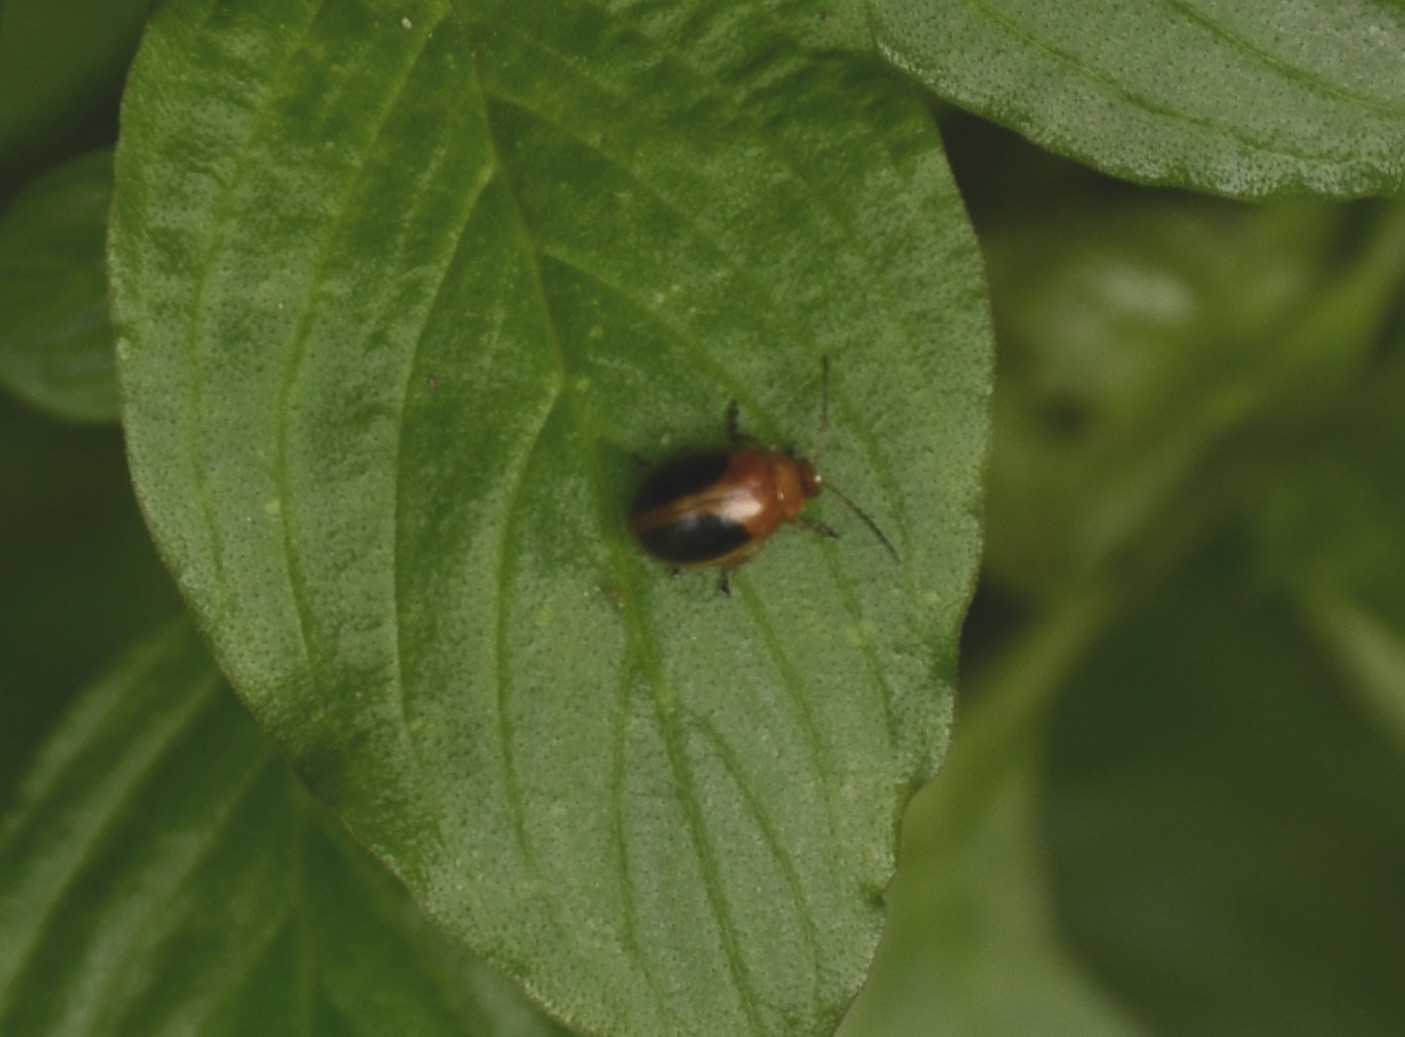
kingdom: Animalia
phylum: Arthropoda
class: Insecta
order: Coleoptera
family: Chrysomelidae
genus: Oides
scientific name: Oides affinis
